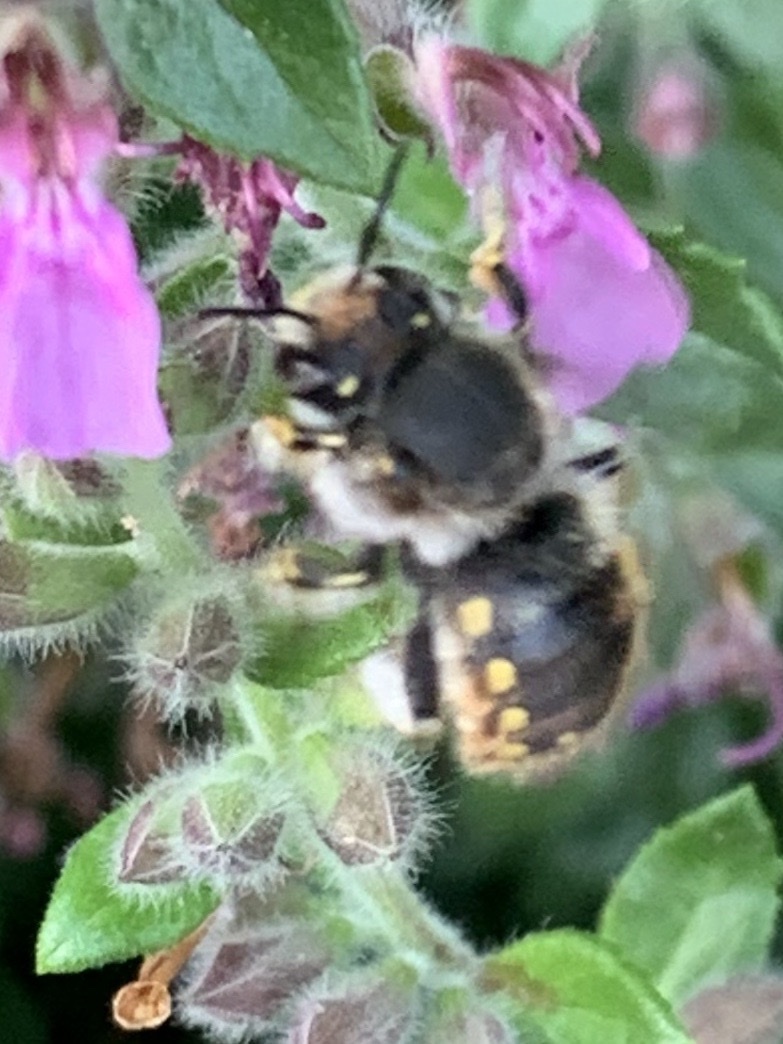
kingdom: Animalia
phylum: Arthropoda
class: Insecta
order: Hymenoptera
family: Megachilidae
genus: Anthidium
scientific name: Anthidium manicatum
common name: Wool carder bee
